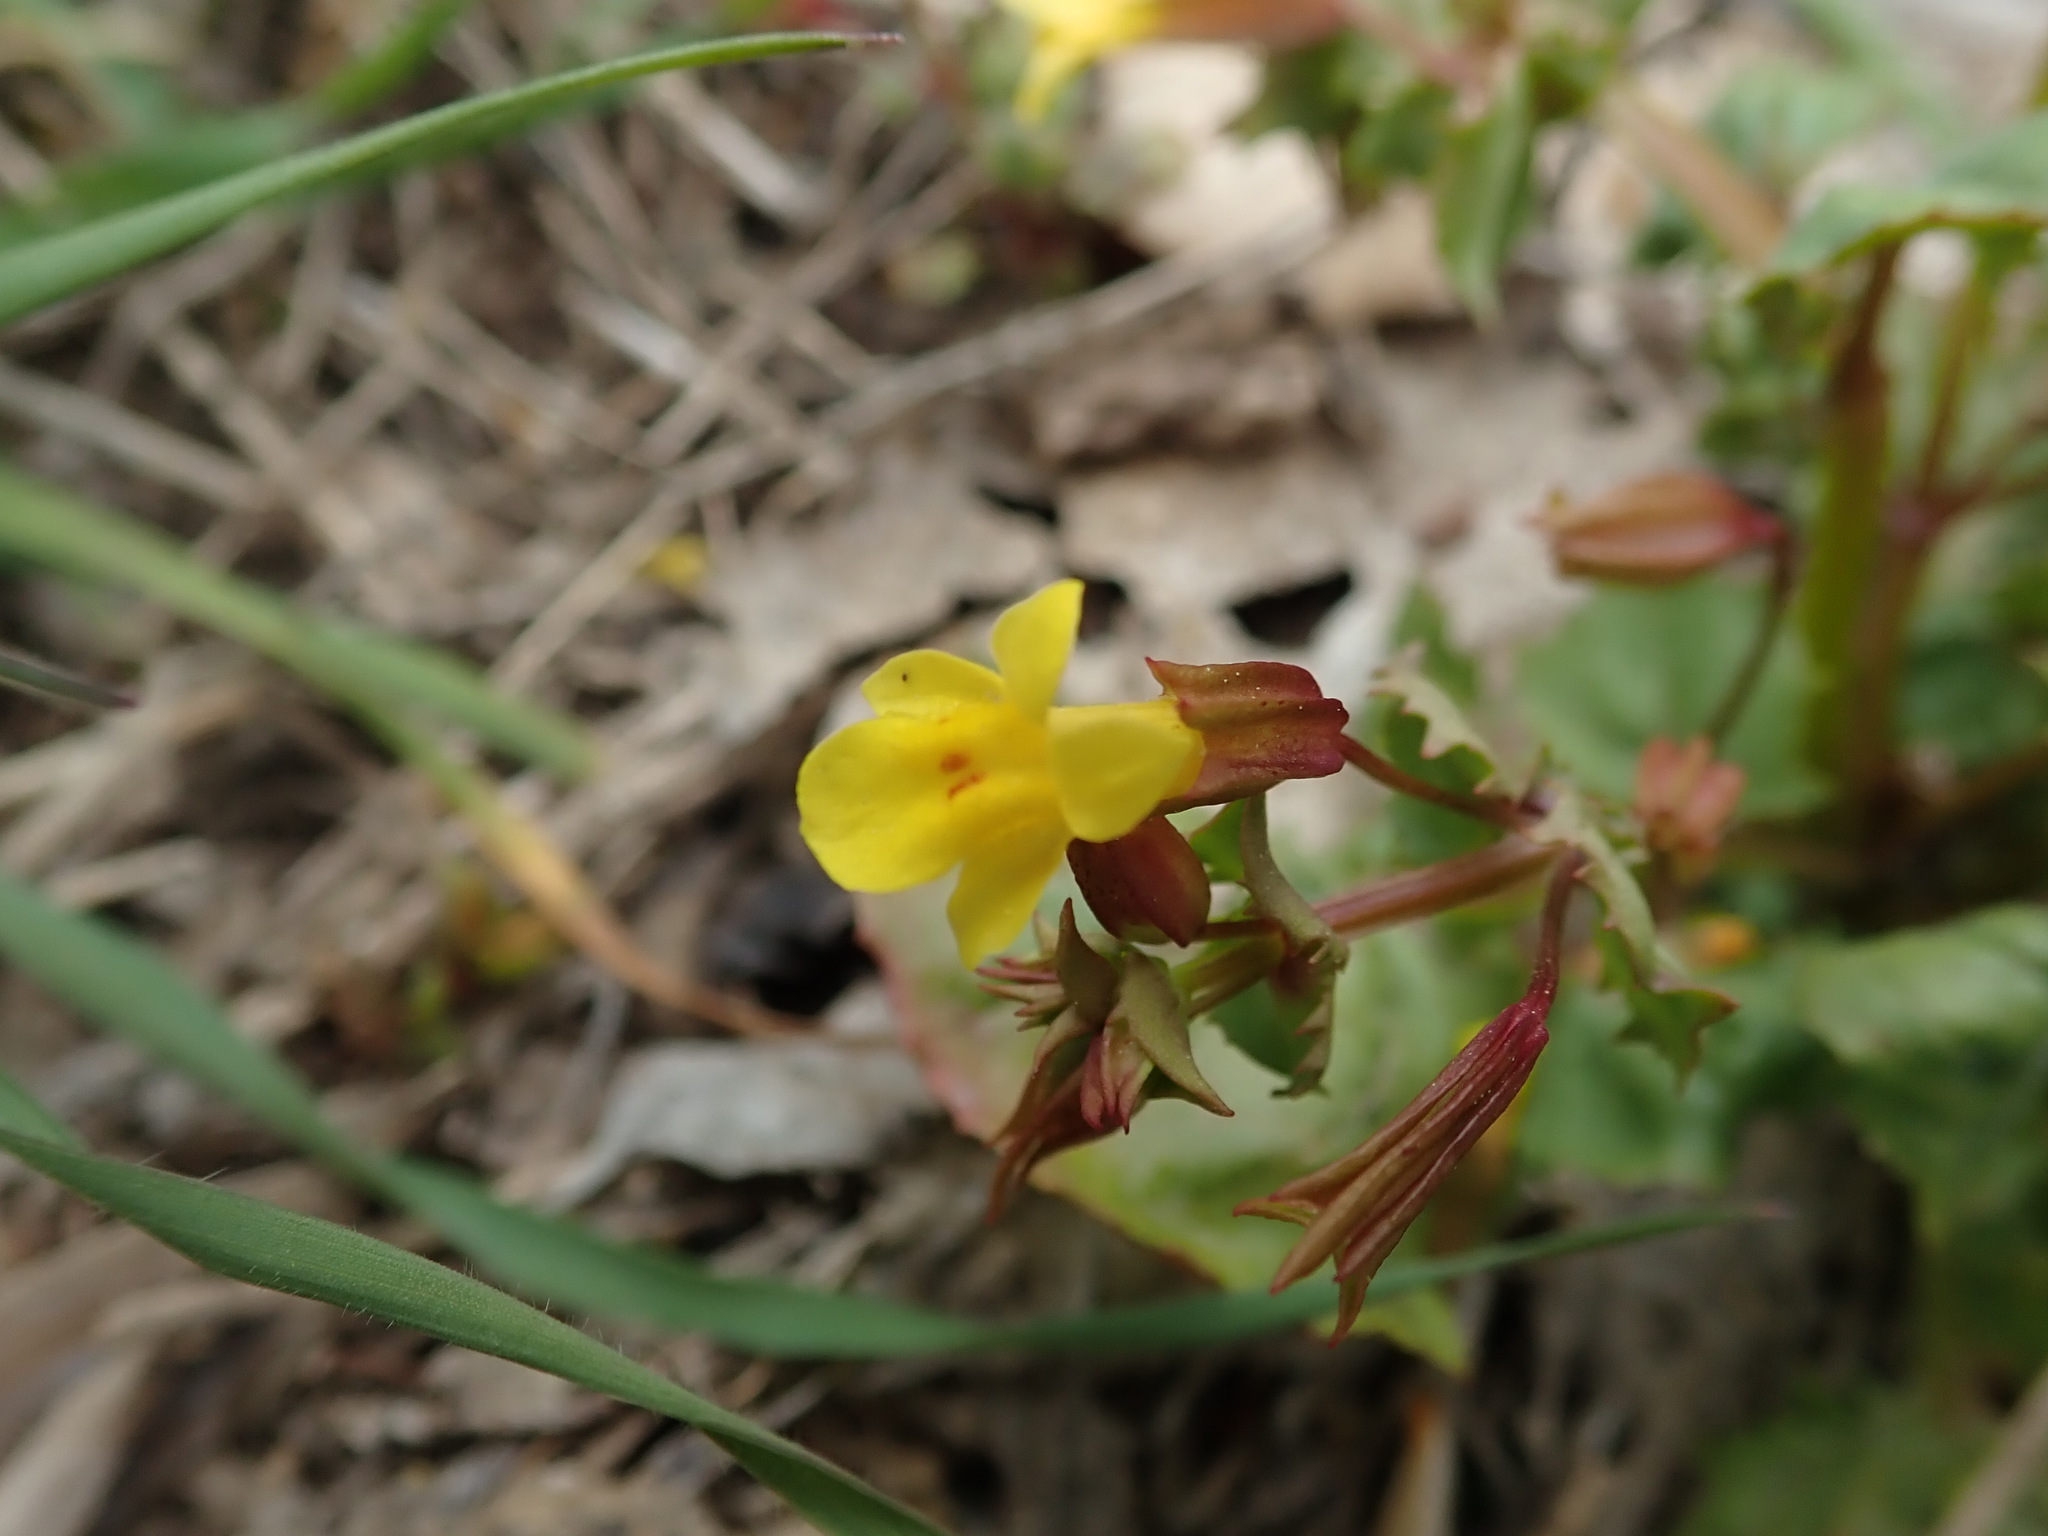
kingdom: Plantae
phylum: Tracheophyta
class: Magnoliopsida
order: Lamiales
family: Phrymaceae
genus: Erythranthe
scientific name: Erythranthe nasuta
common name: Sooke monkeyflower
